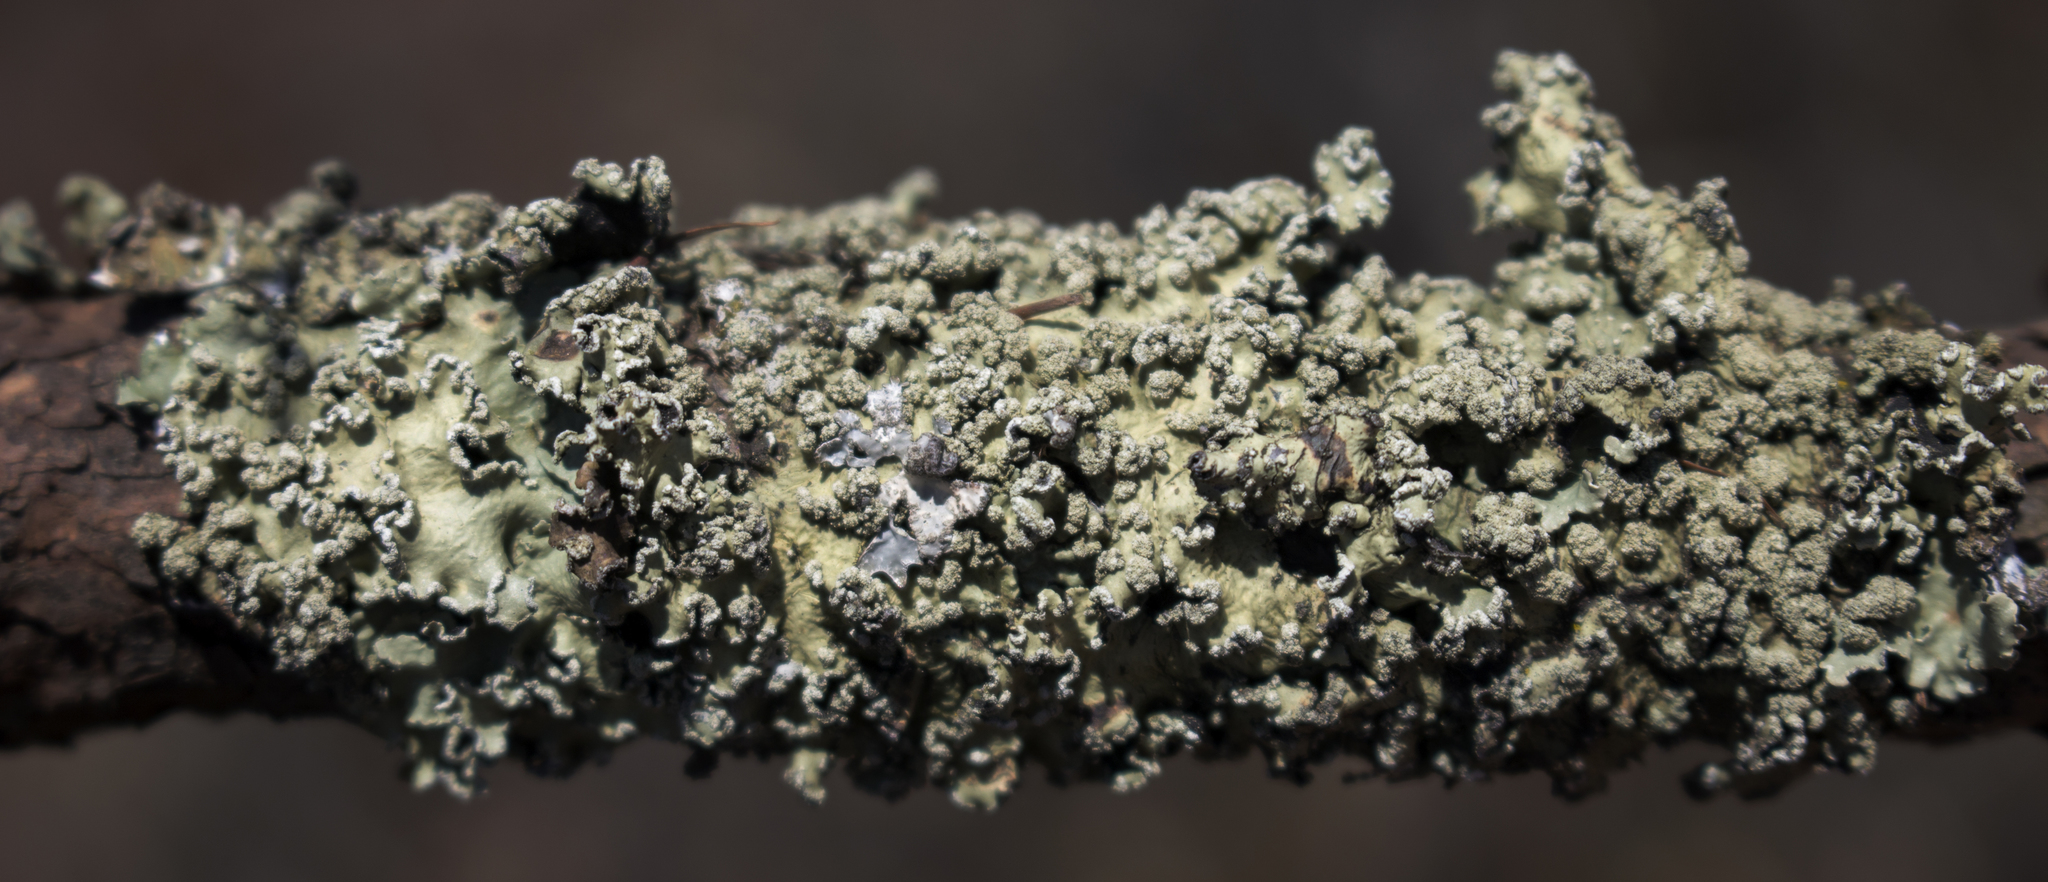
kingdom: Fungi
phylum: Ascomycota
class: Lecanoromycetes
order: Lecanorales
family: Parmeliaceae
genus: Flavopunctelia
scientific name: Flavopunctelia soredica
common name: Powder-edged speckled greenshield
